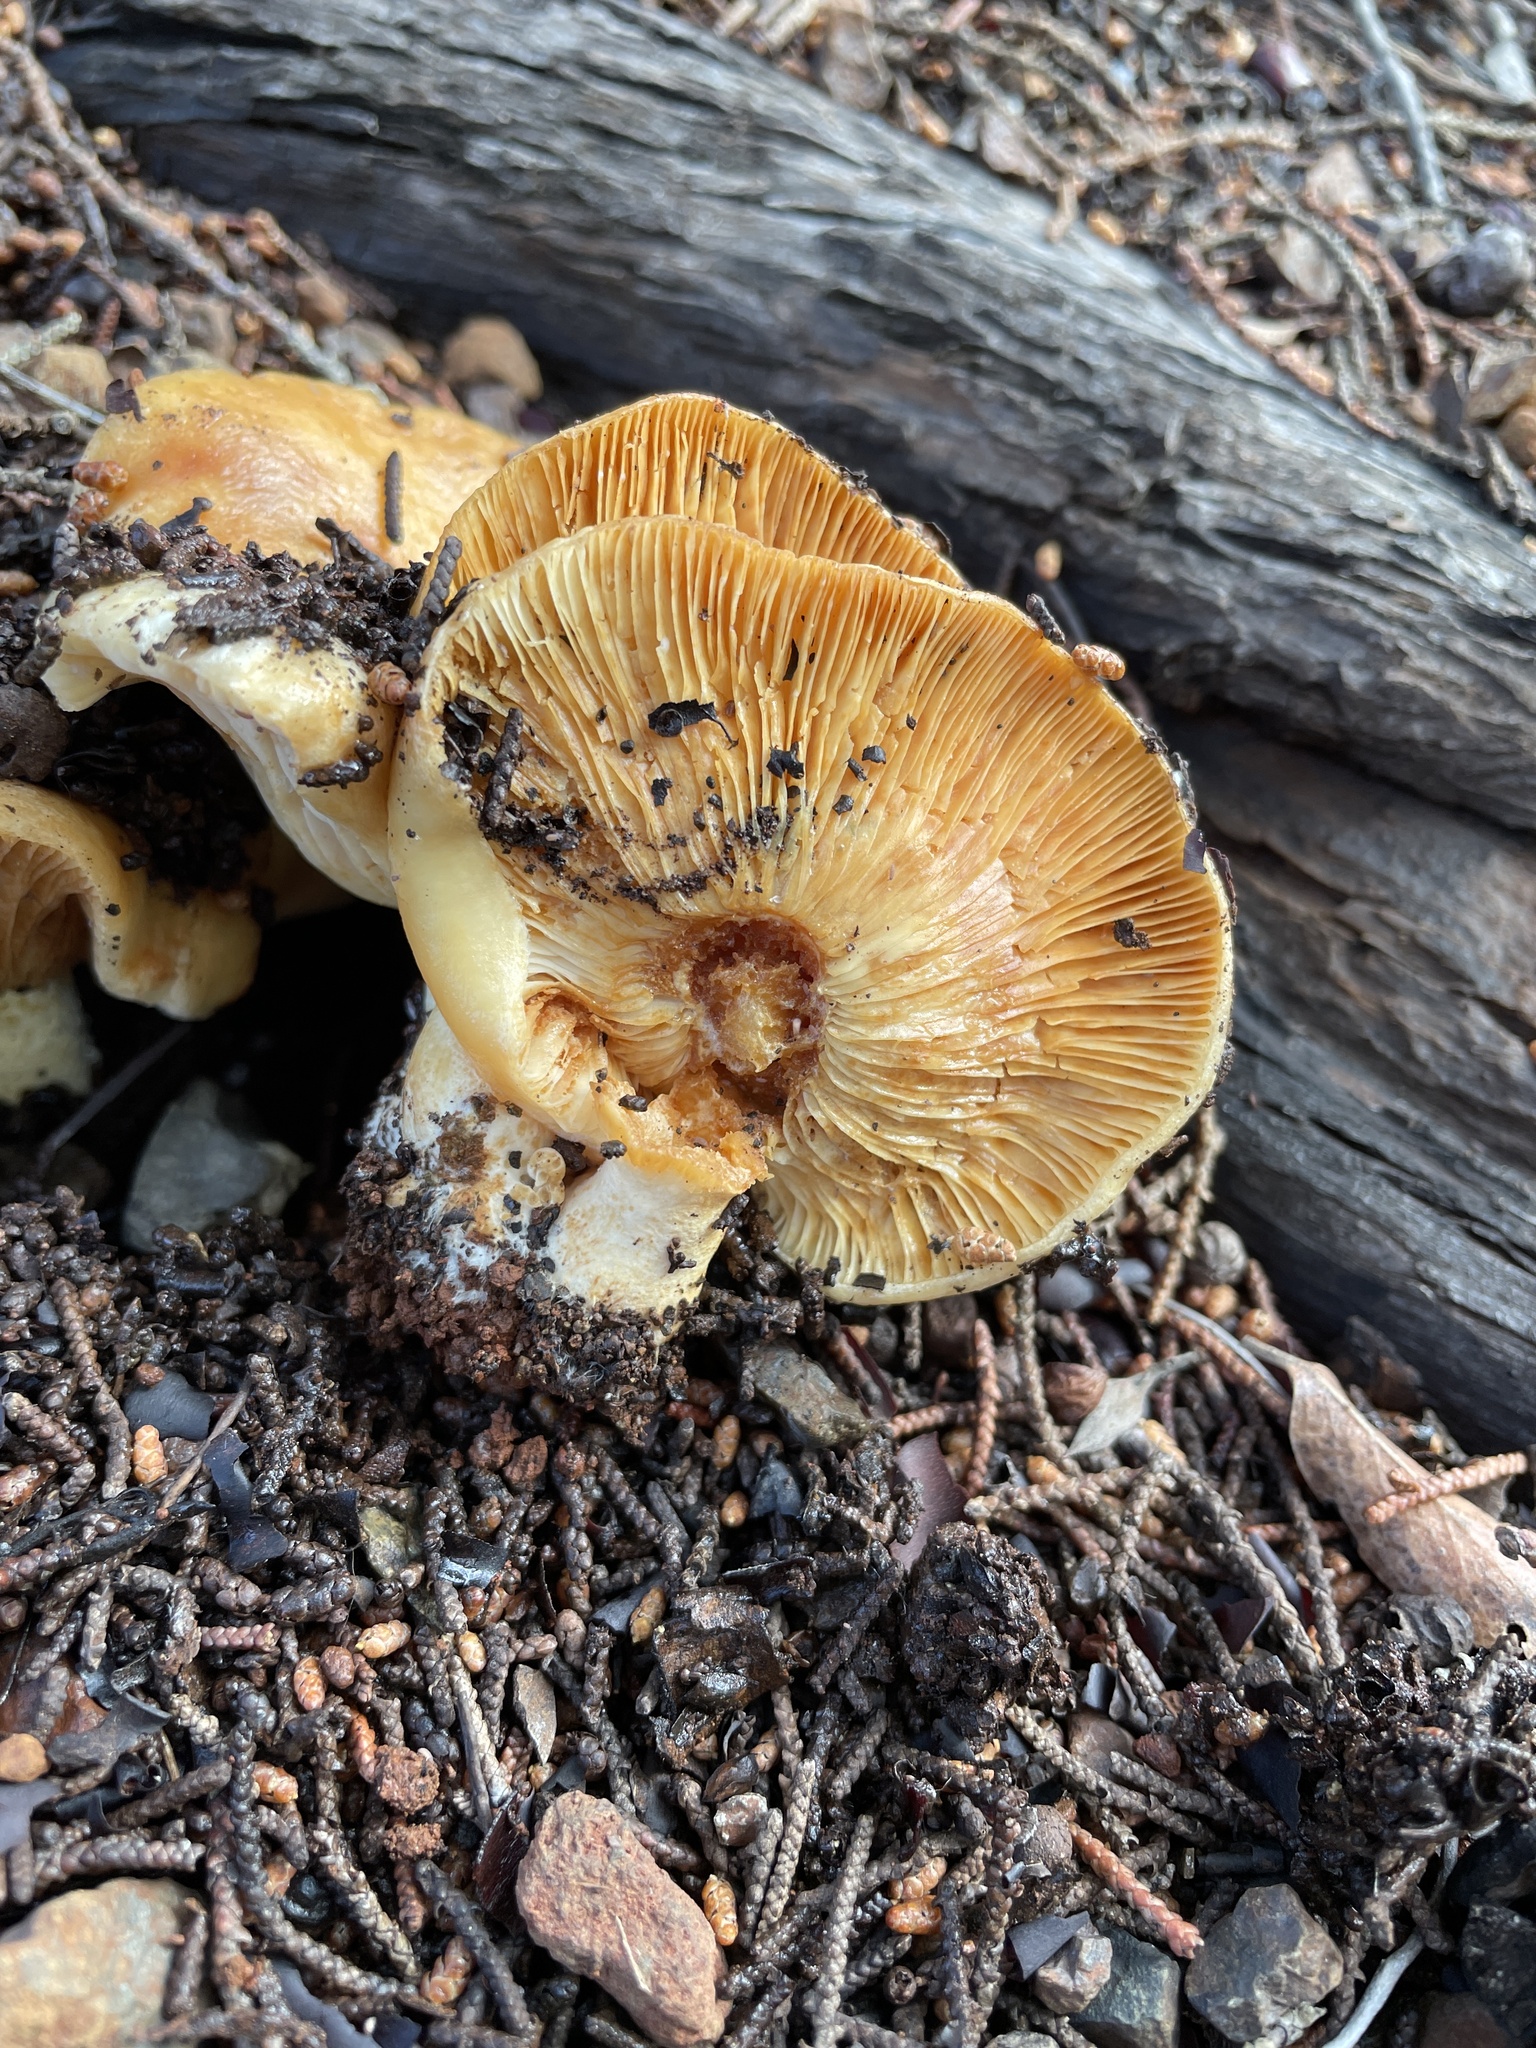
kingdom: Fungi
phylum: Basidiomycota
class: Agaricomycetes
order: Russulales
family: Russulaceae
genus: Lactarius
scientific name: Lactarius alnicola
